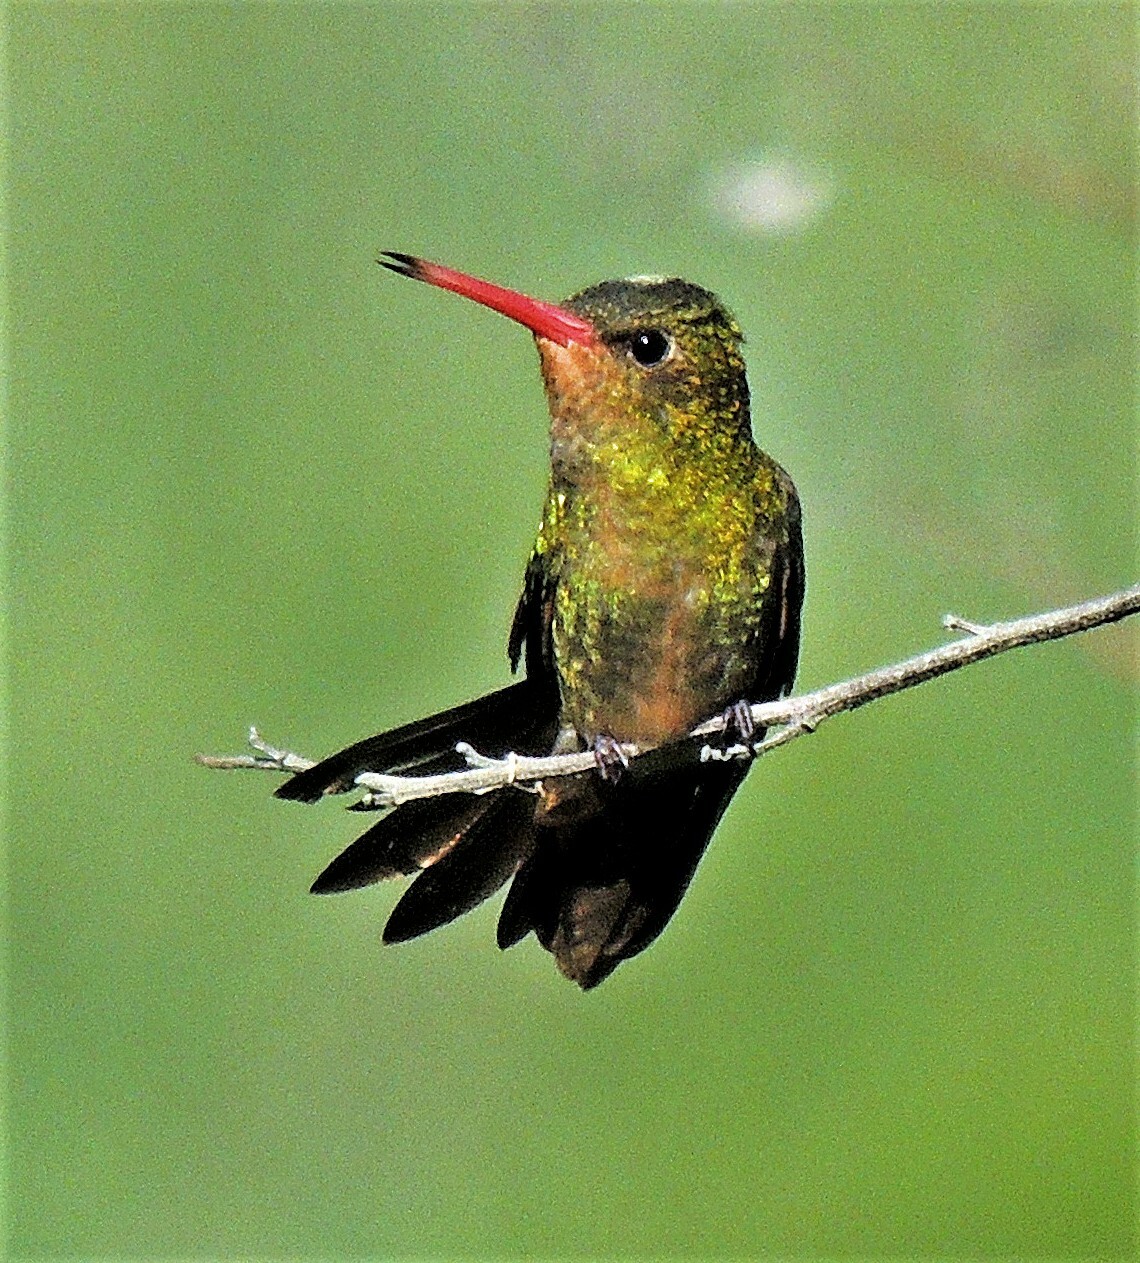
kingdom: Animalia
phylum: Chordata
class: Aves
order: Apodiformes
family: Trochilidae
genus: Hylocharis
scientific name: Hylocharis chrysura
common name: Gilded sapphire
